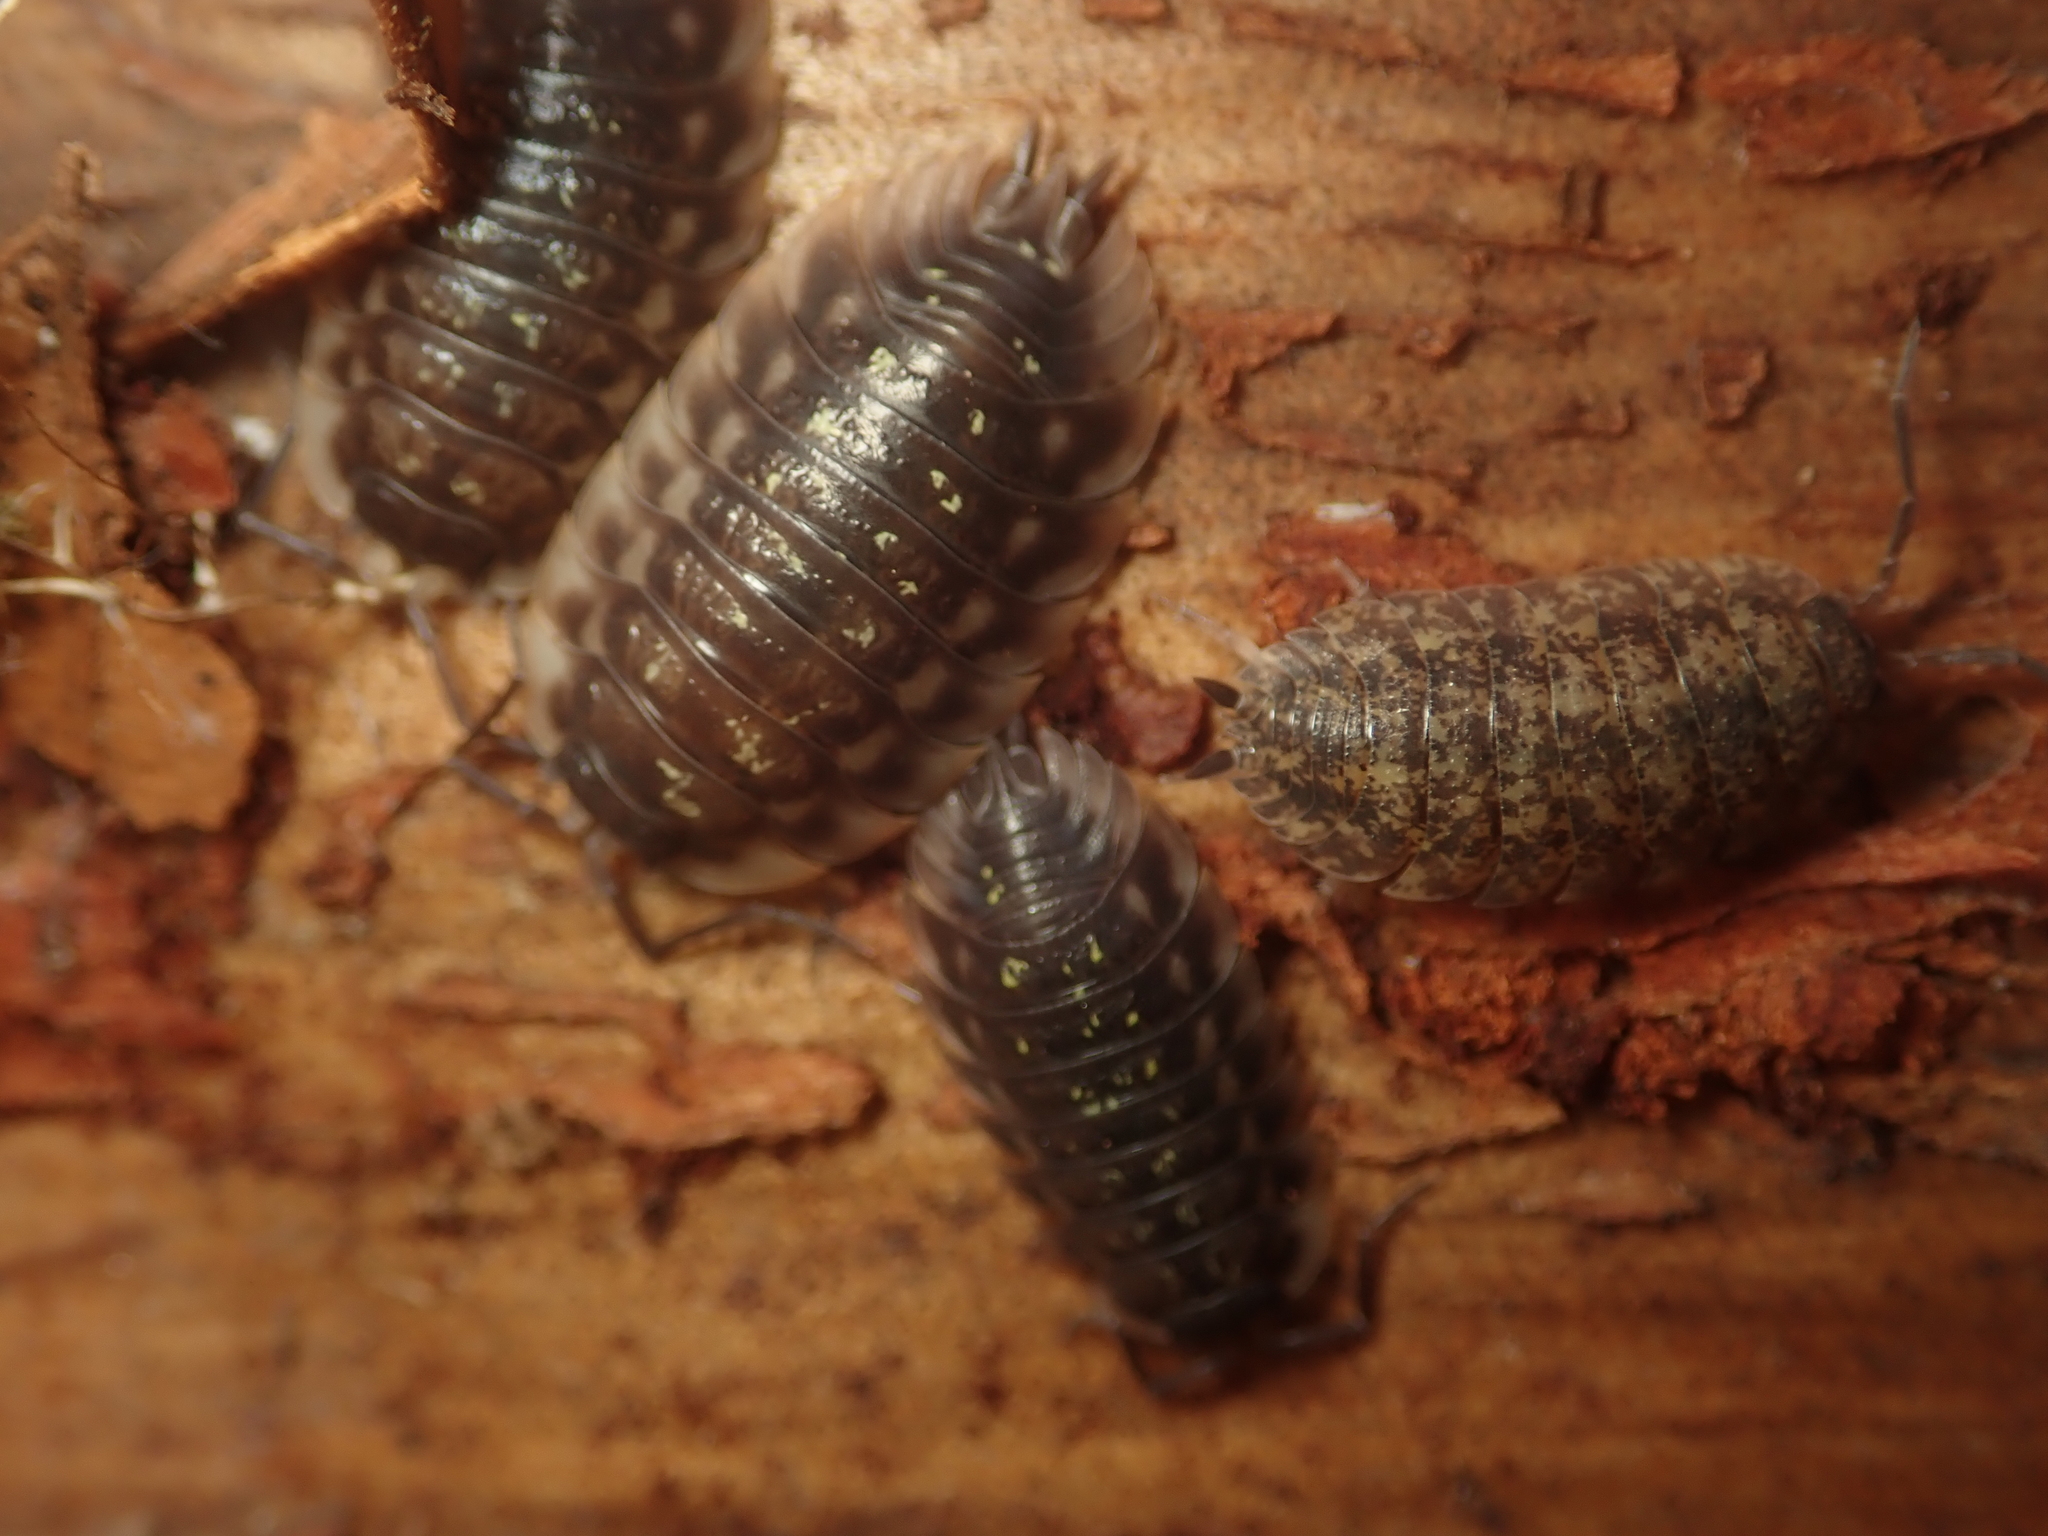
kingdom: Animalia
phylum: Arthropoda
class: Malacostraca
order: Isopoda
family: Oniscidae
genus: Oniscus
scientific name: Oniscus asellus
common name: Common shiny woodlouse
